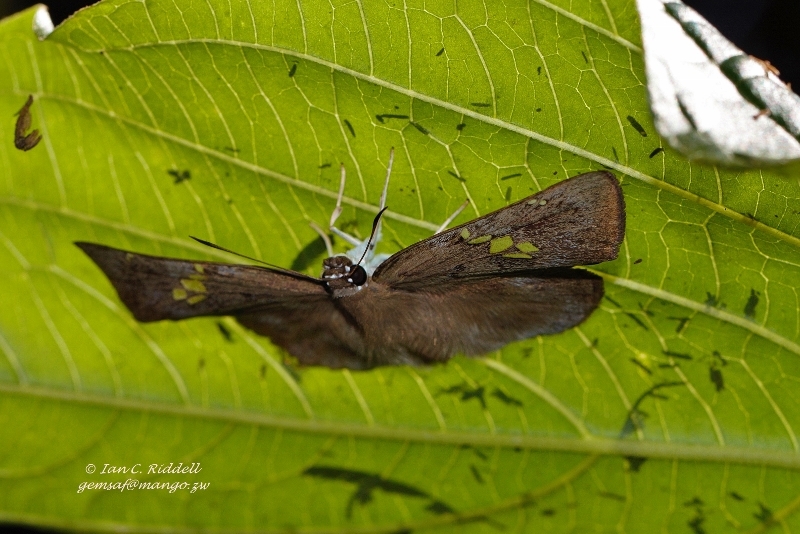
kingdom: Animalia
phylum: Arthropoda
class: Insecta
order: Lepidoptera
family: Hesperiidae
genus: Tagiades
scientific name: Tagiades flesus
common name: Clouded flat
